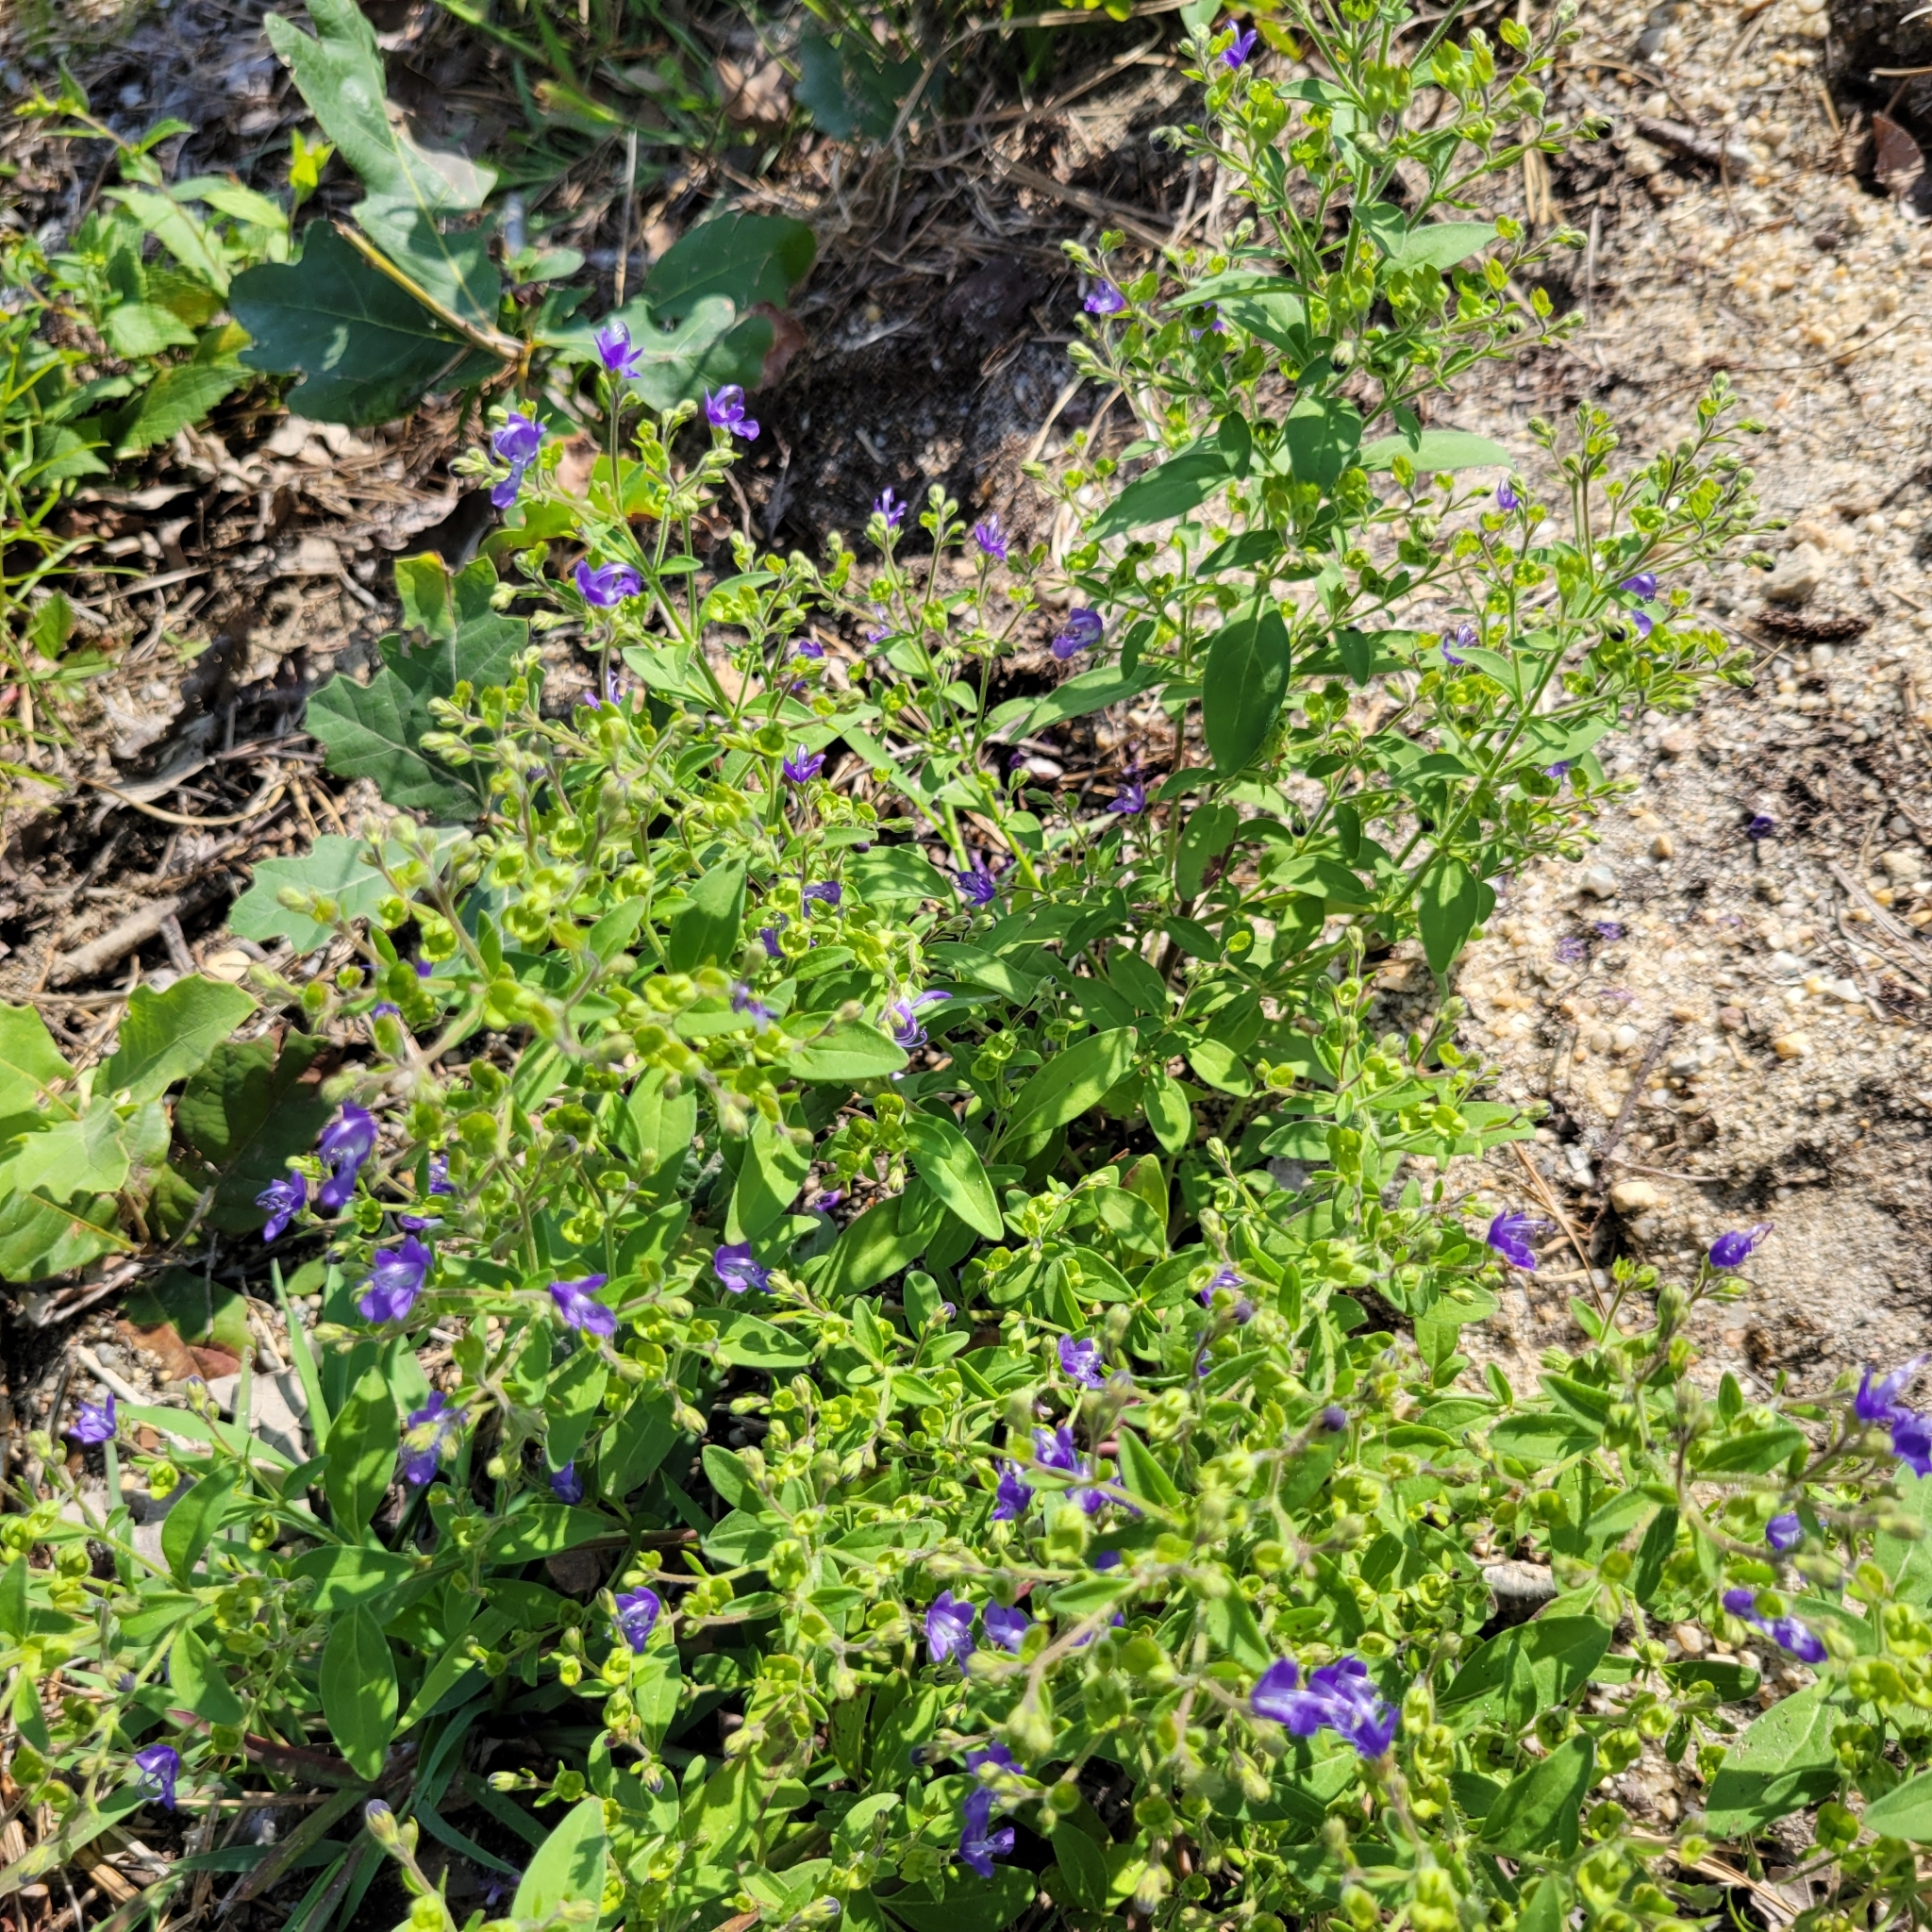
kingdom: Plantae
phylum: Tracheophyta
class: Magnoliopsida
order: Lamiales
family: Lamiaceae
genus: Trichostema
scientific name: Trichostema dichotomum
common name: Bastard pennyroyal
